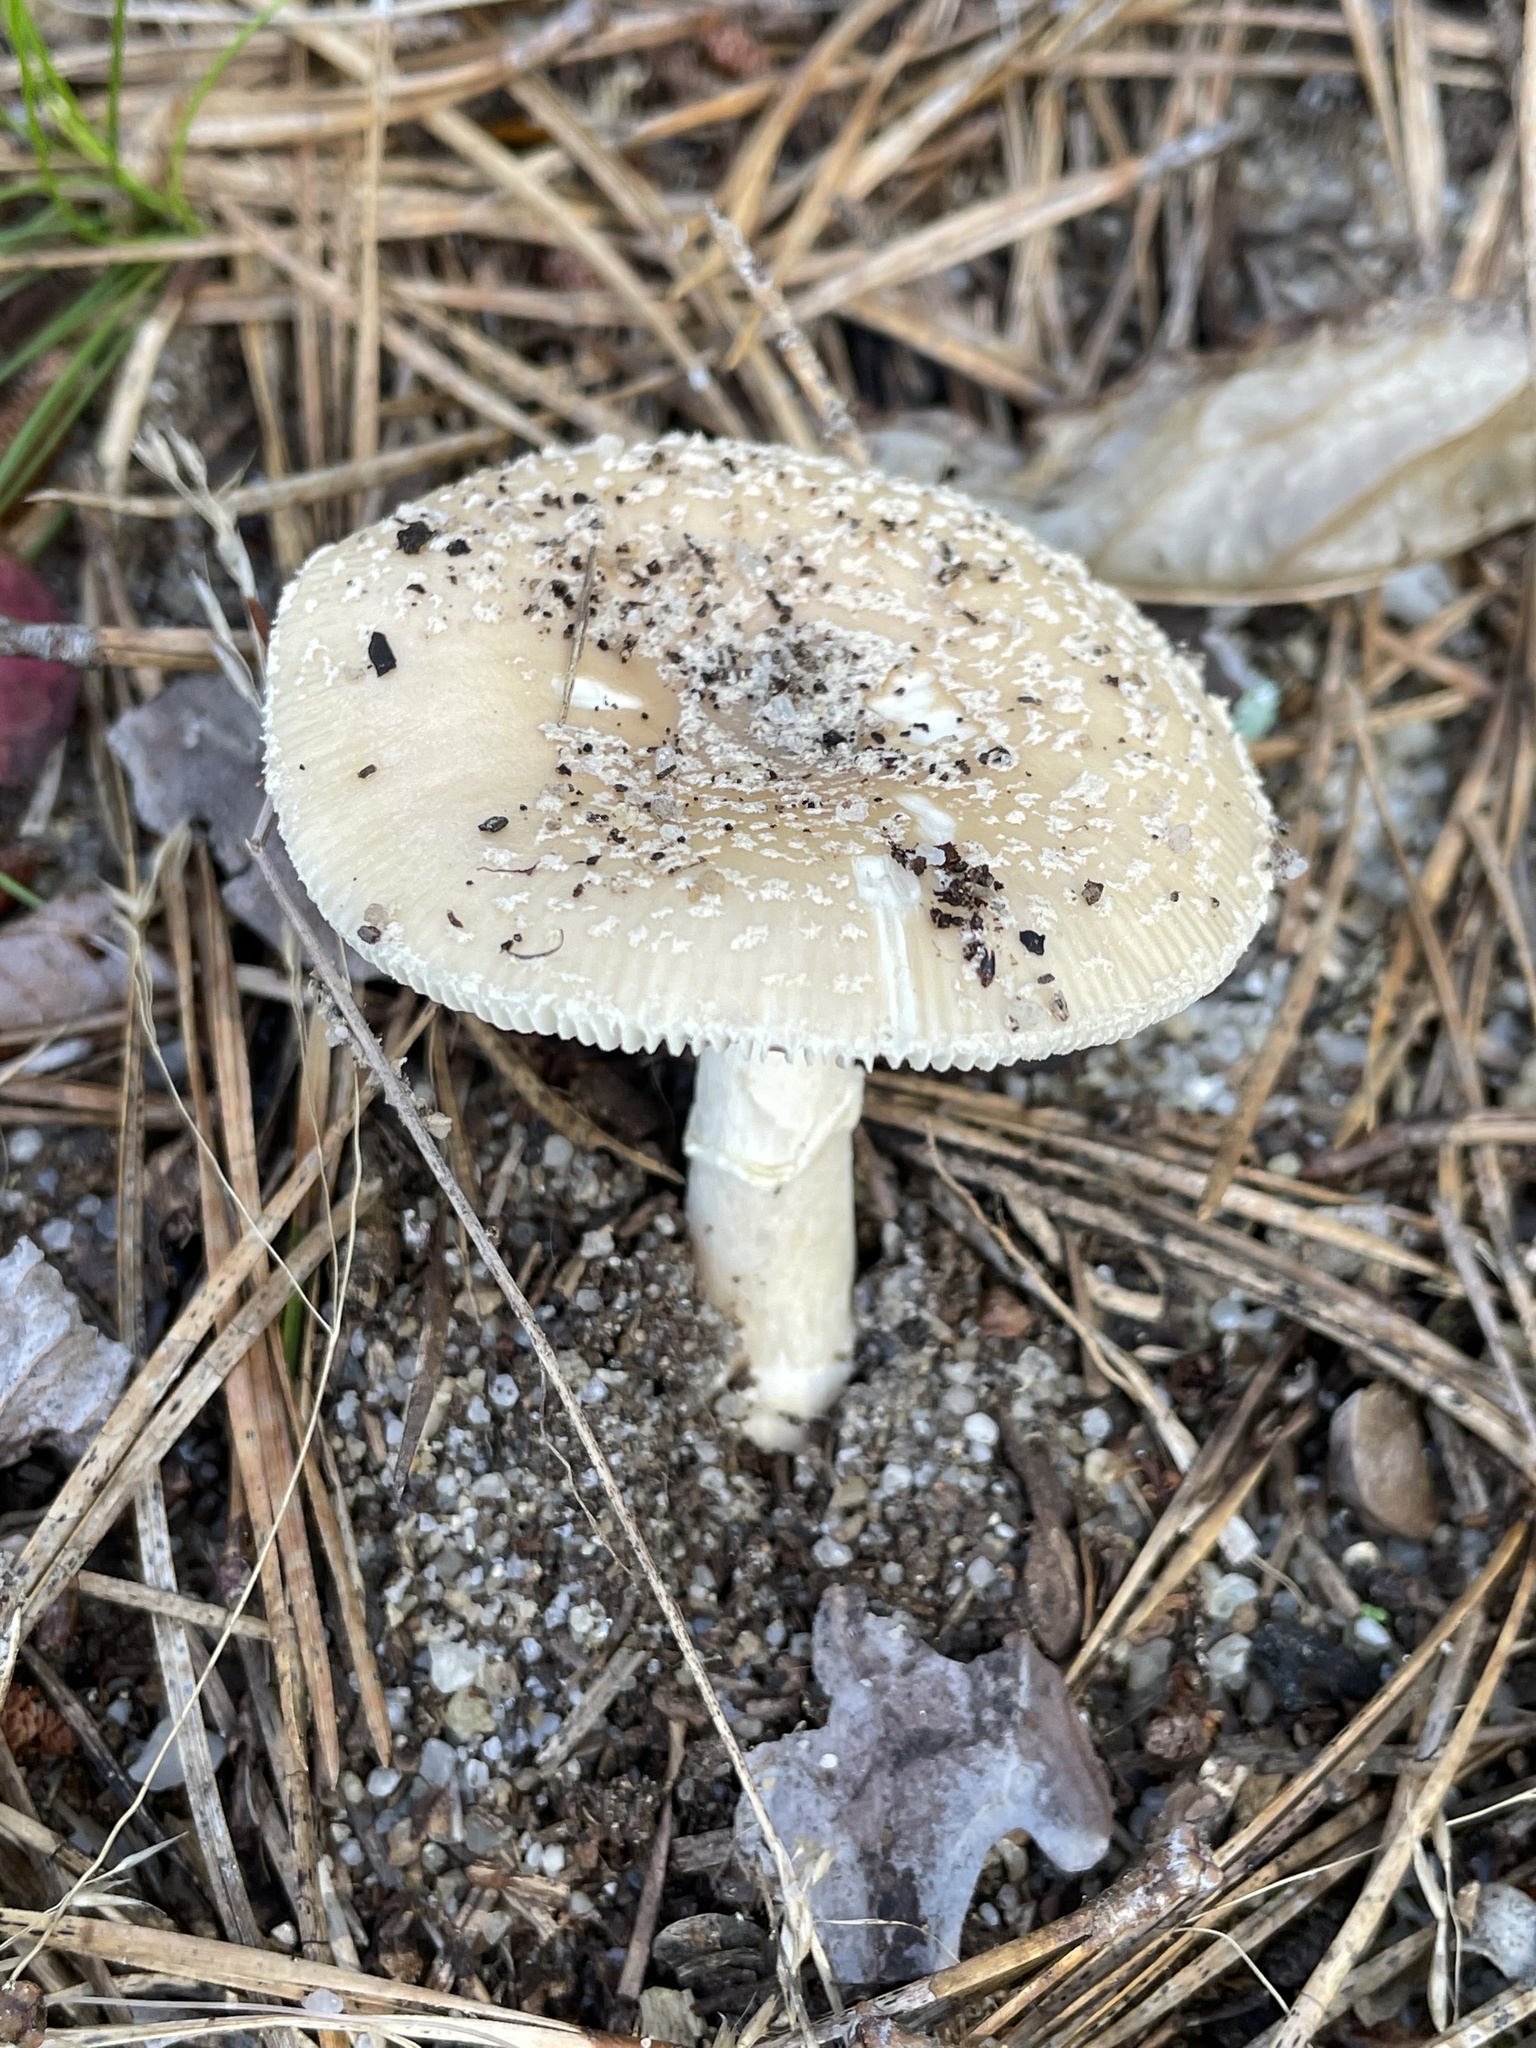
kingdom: Fungi
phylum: Basidiomycota
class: Agaricomycetes
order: Agaricales
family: Amanitaceae
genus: Amanita
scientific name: Amanita crenulata
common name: Poison champagne amanita
